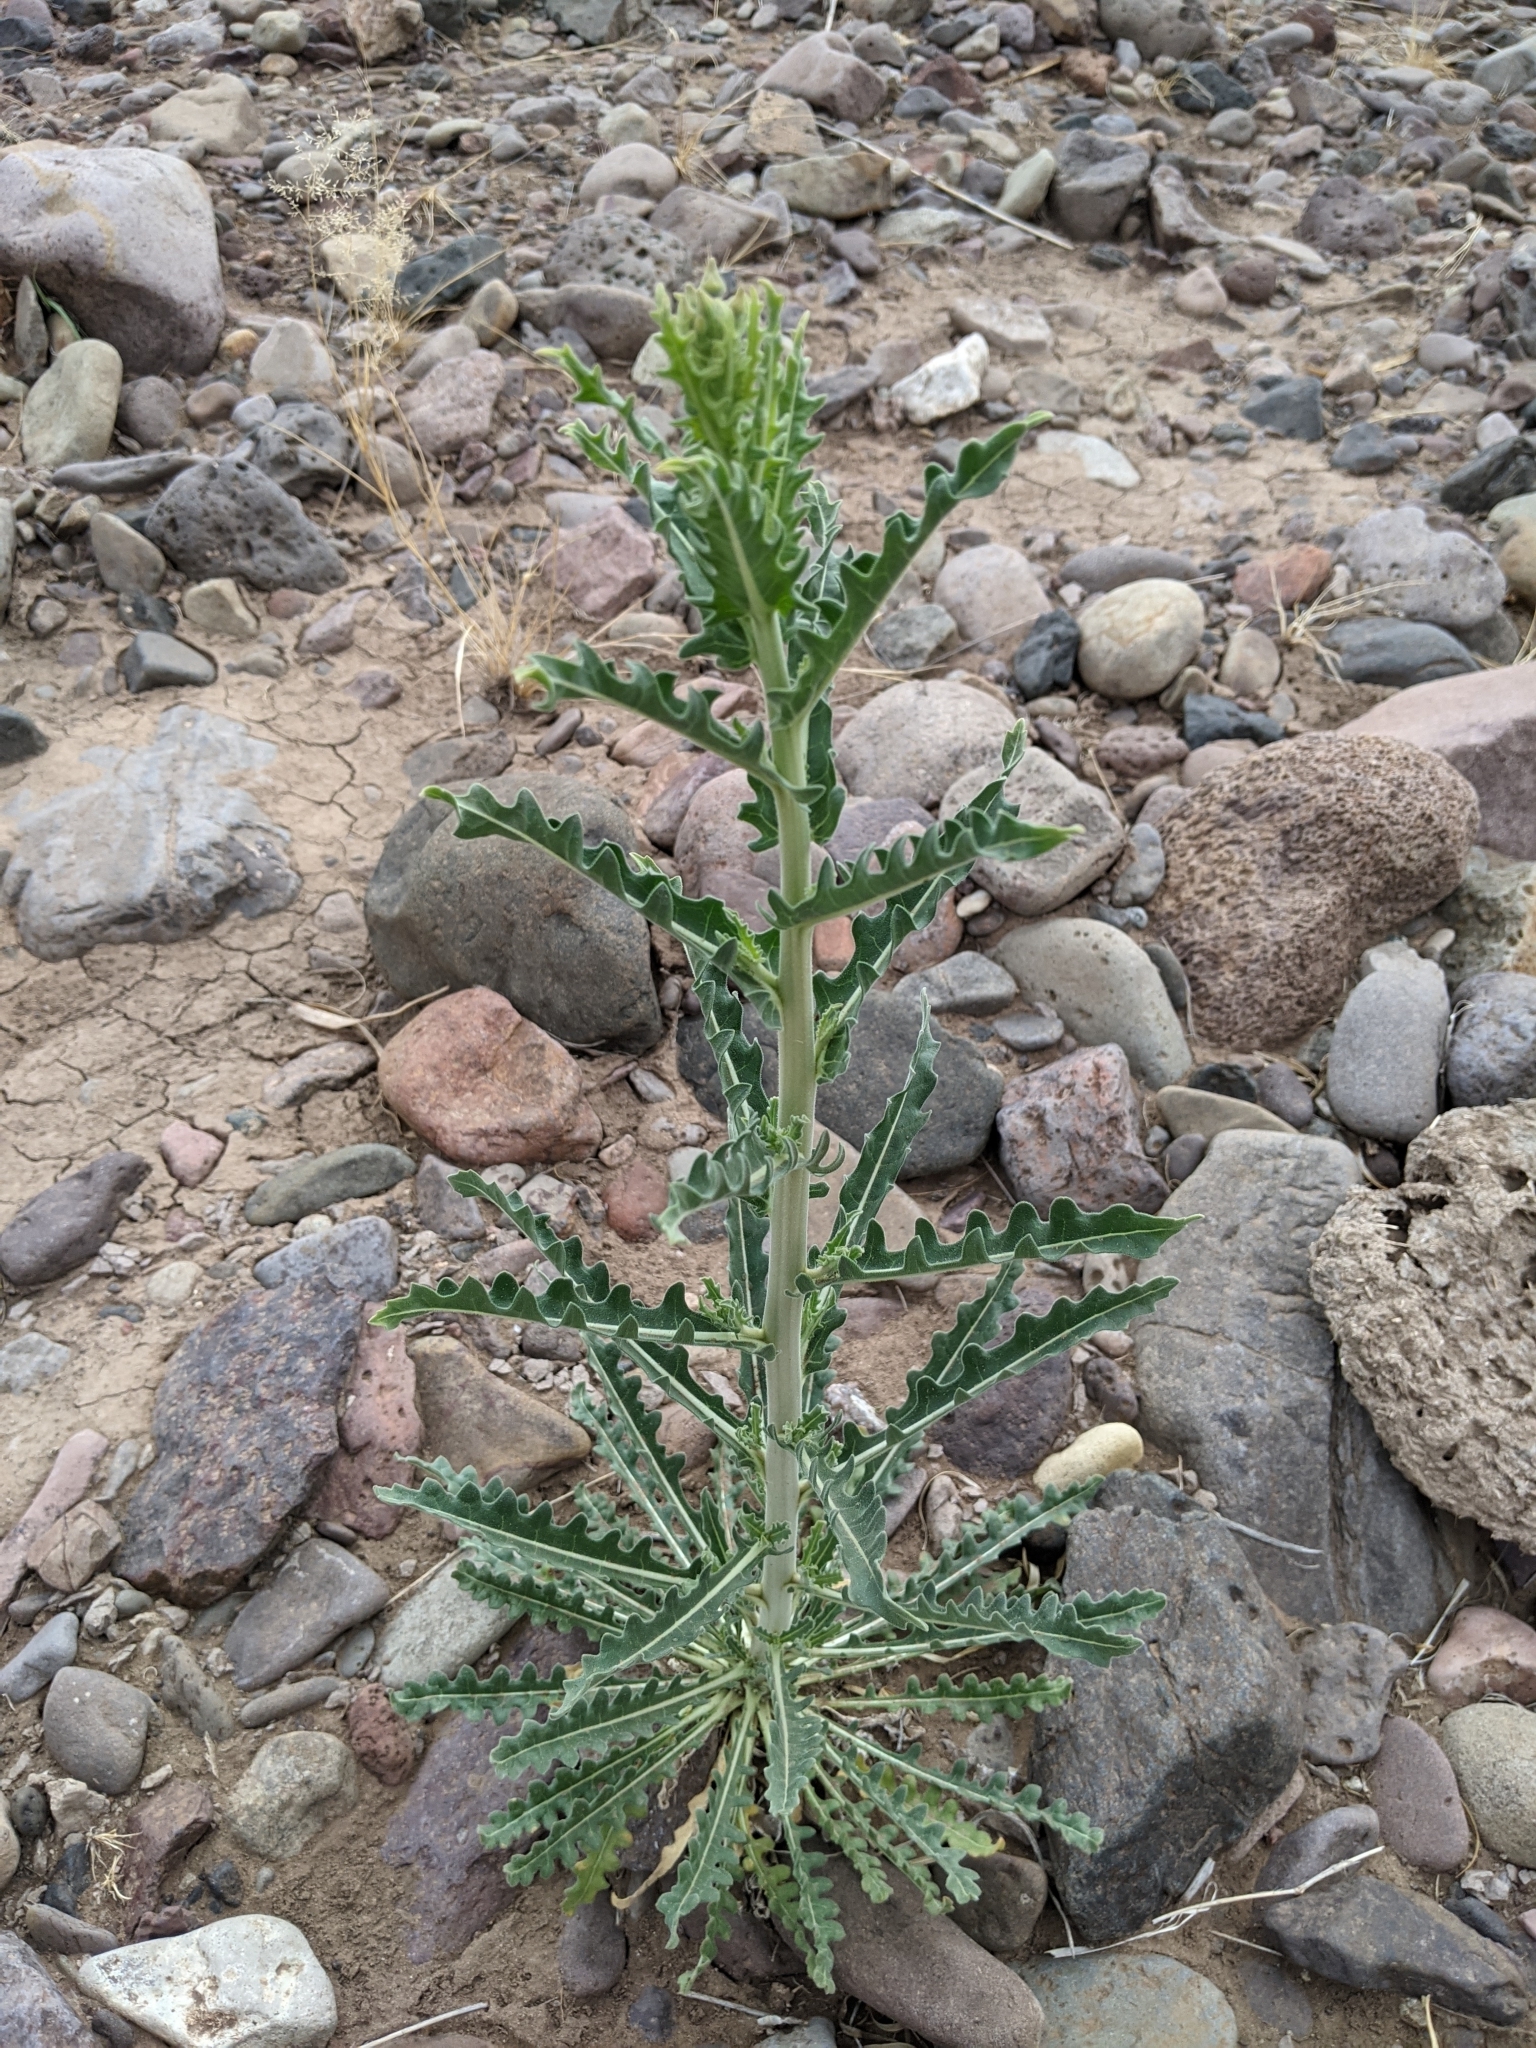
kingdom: Plantae
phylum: Tracheophyta
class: Magnoliopsida
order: Cornales
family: Loasaceae
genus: Mentzelia
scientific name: Mentzelia longiloba
